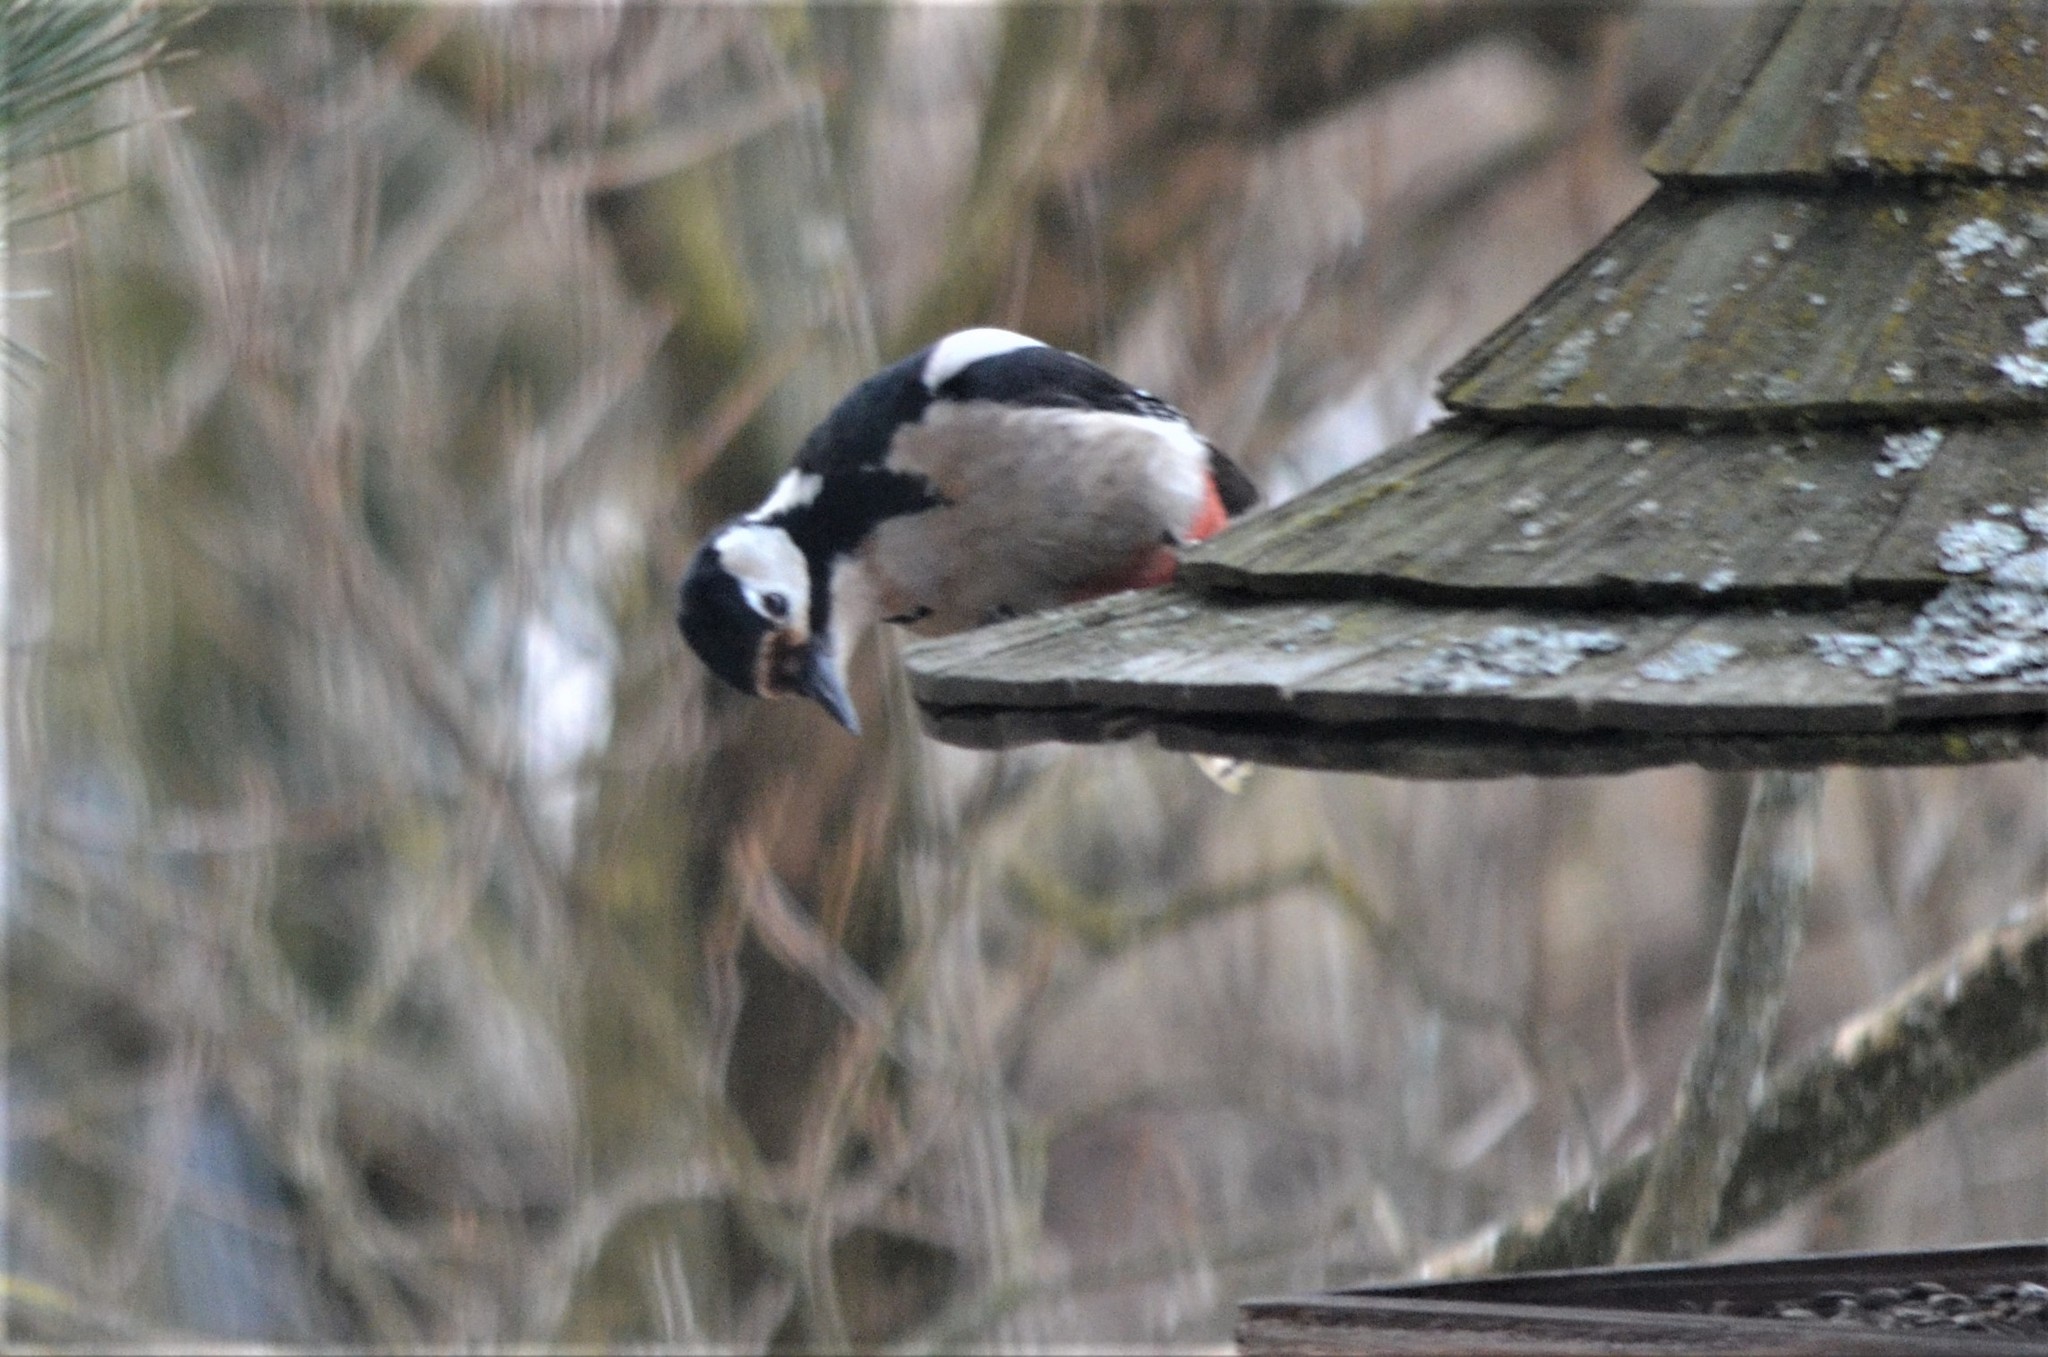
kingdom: Animalia
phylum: Chordata
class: Aves
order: Piciformes
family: Picidae
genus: Dendrocopos
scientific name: Dendrocopos major
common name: Great spotted woodpecker
